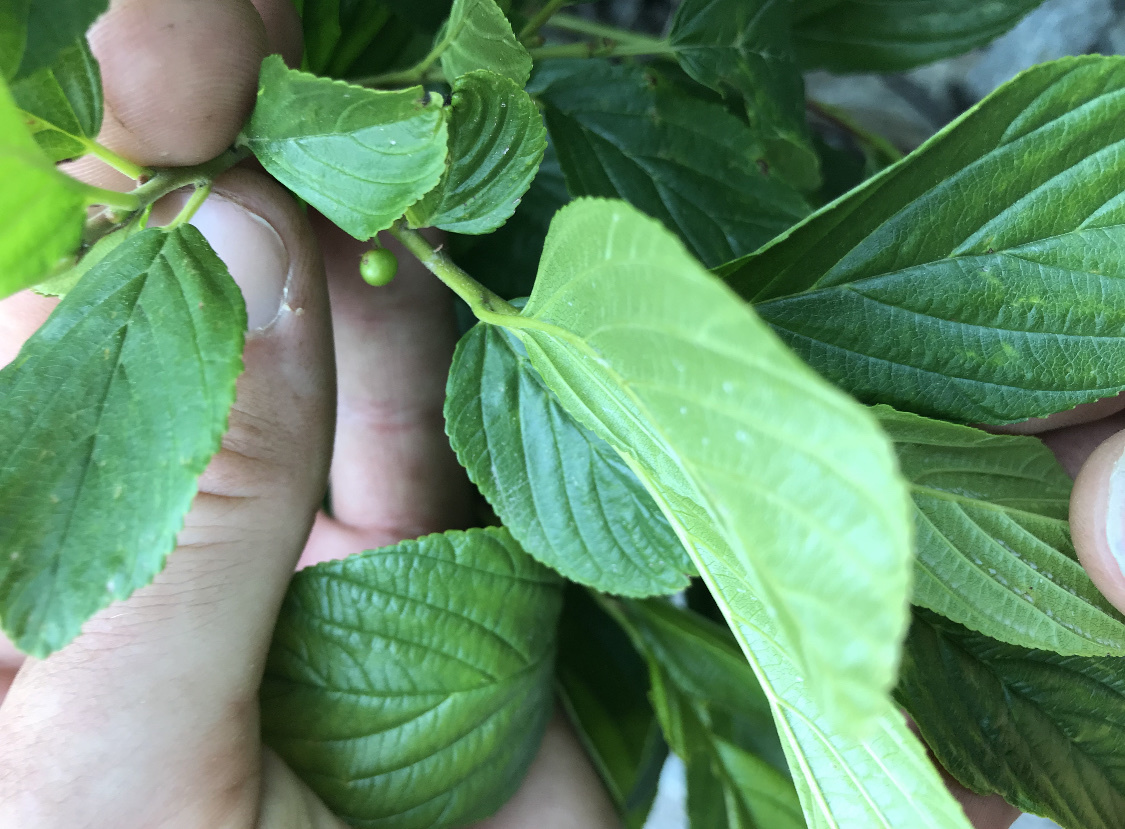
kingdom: Plantae
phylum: Tracheophyta
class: Magnoliopsida
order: Rosales
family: Rhamnaceae
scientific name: Rhamnaceae
